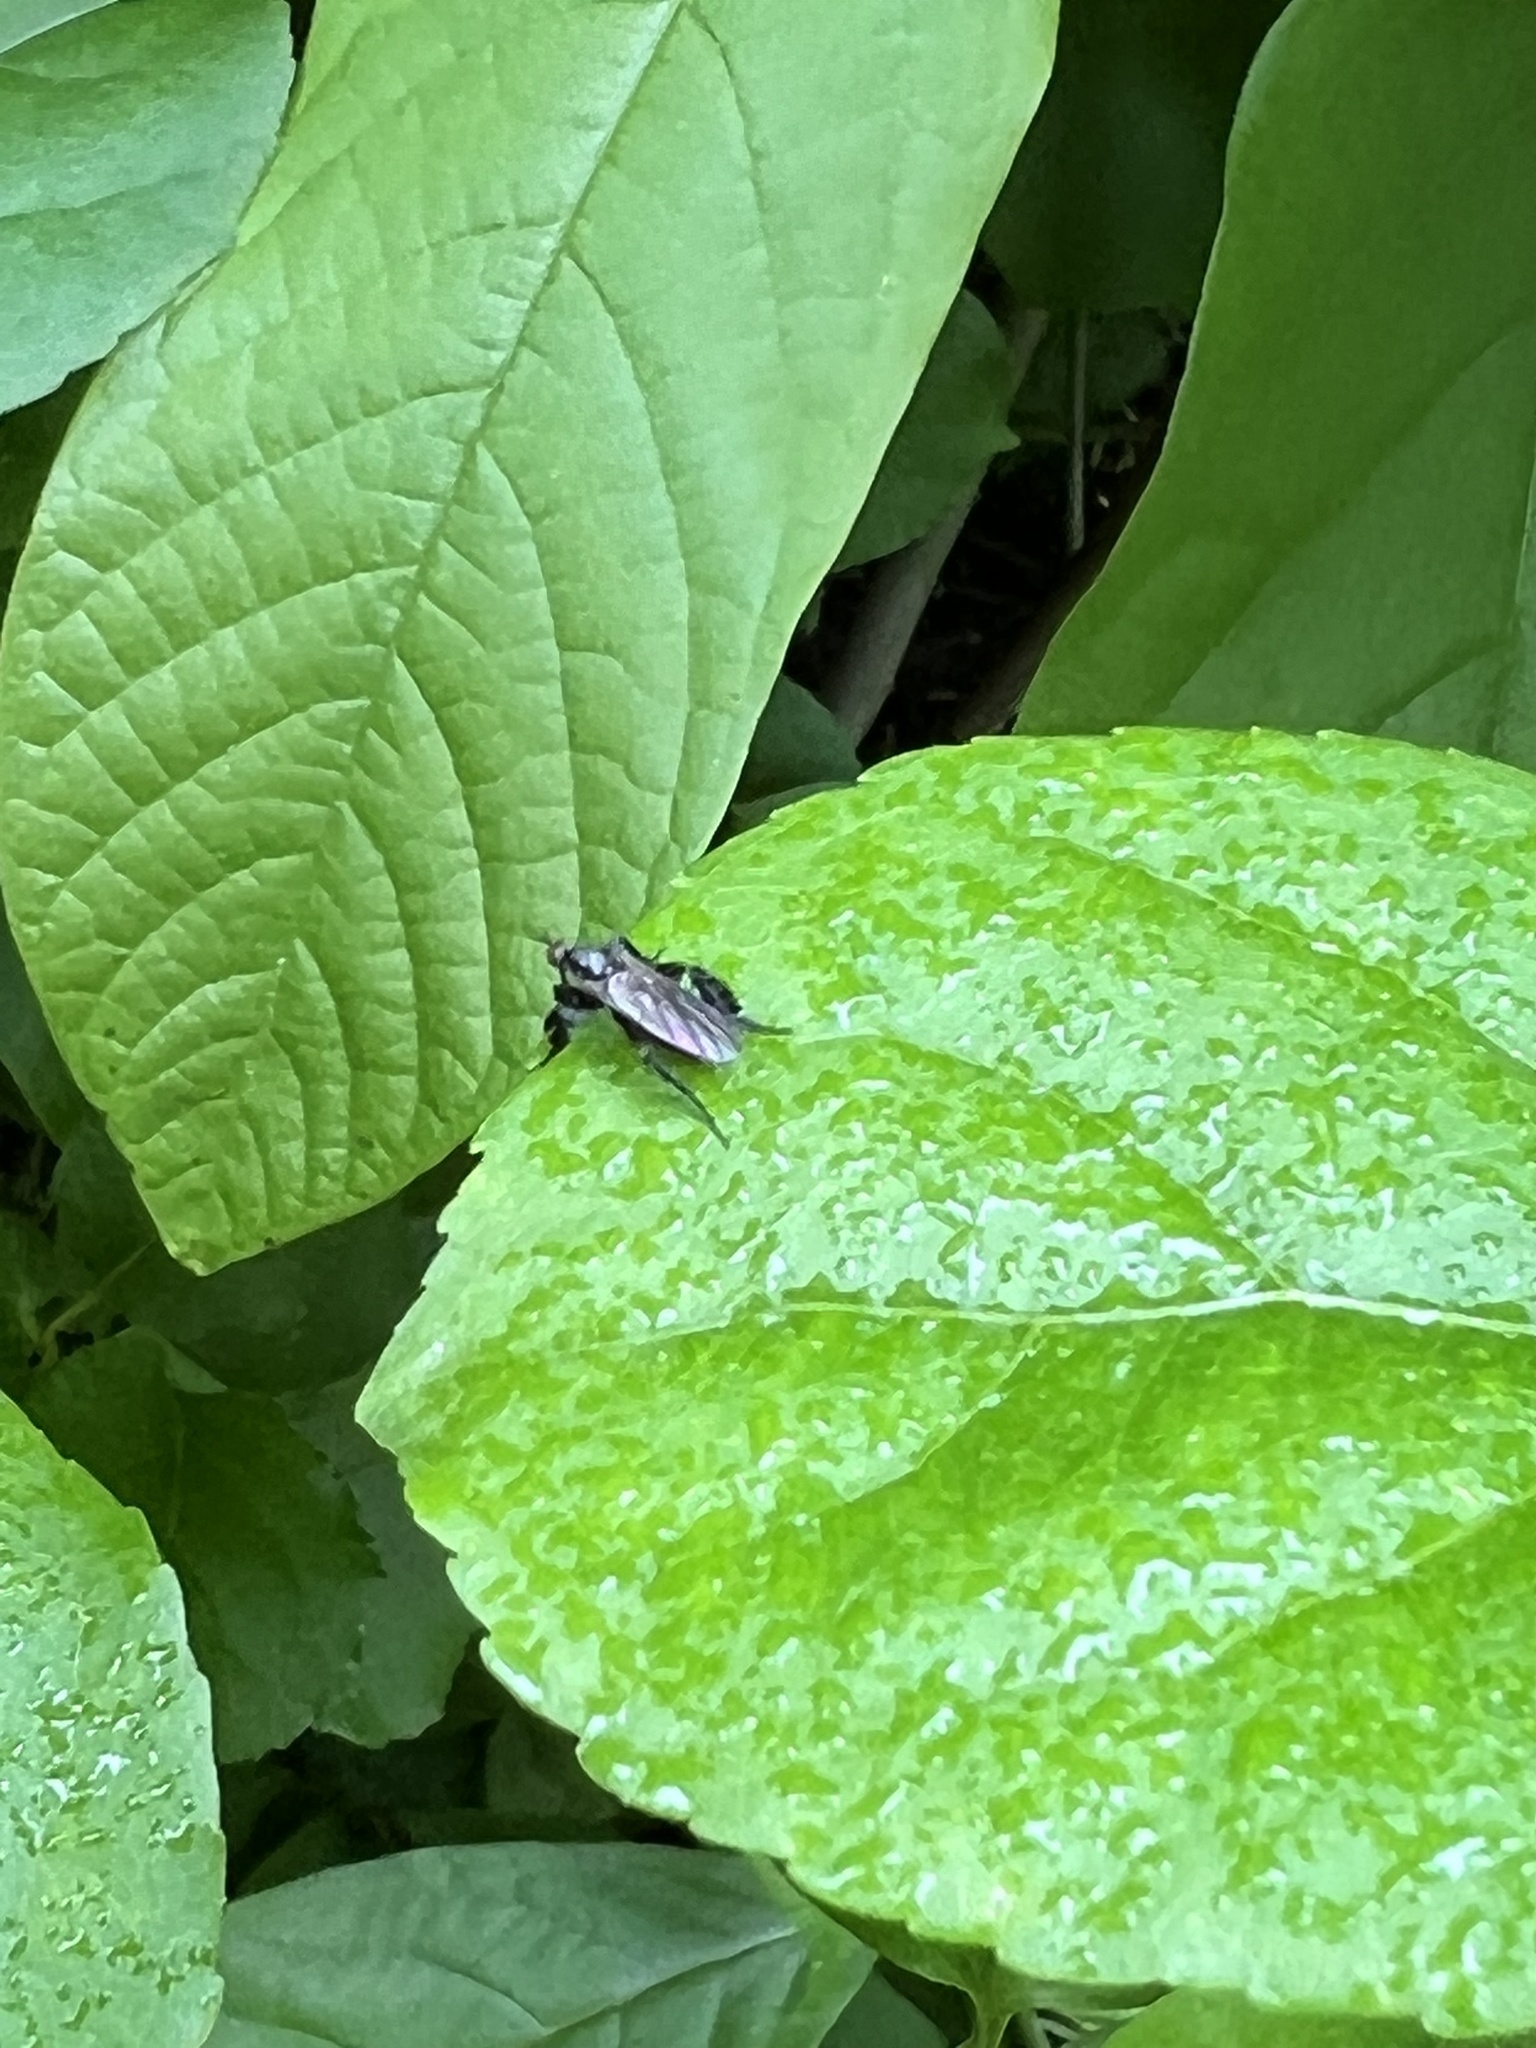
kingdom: Animalia
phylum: Arthropoda
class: Insecta
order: Diptera
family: Empididae
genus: Rhamphomyia
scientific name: Rhamphomyia longicauda
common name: Long-tailed dance fly
